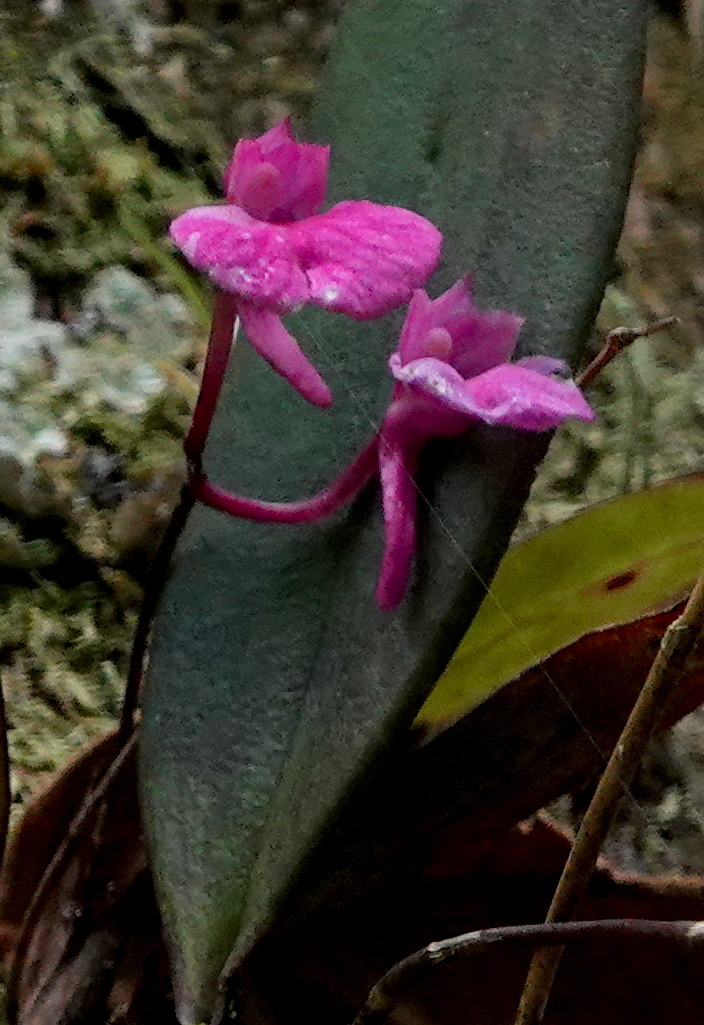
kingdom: Plantae
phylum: Tracheophyta
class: Liliopsida
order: Asparagales
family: Orchidaceae
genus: Comparettia
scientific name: Comparettia falcata
